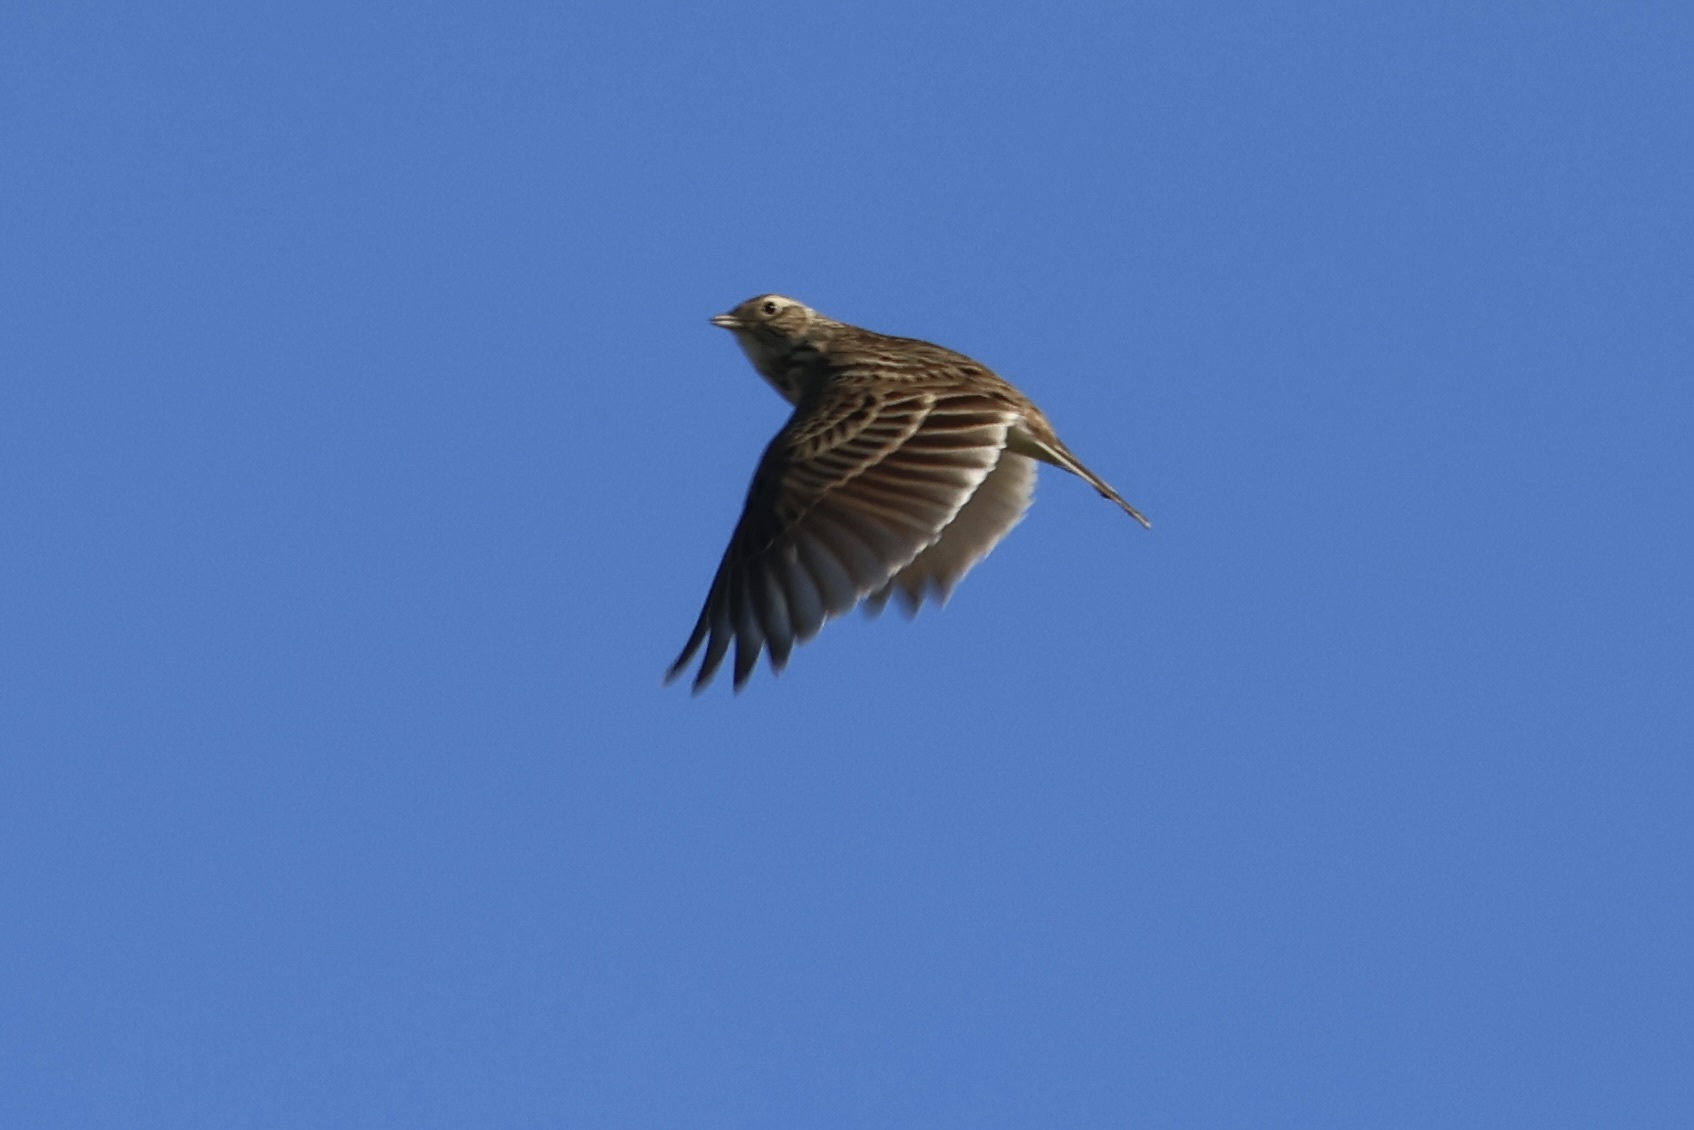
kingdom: Animalia
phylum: Chordata
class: Aves
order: Passeriformes
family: Alaudidae
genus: Alauda
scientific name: Alauda arvensis
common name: Eurasian skylark
